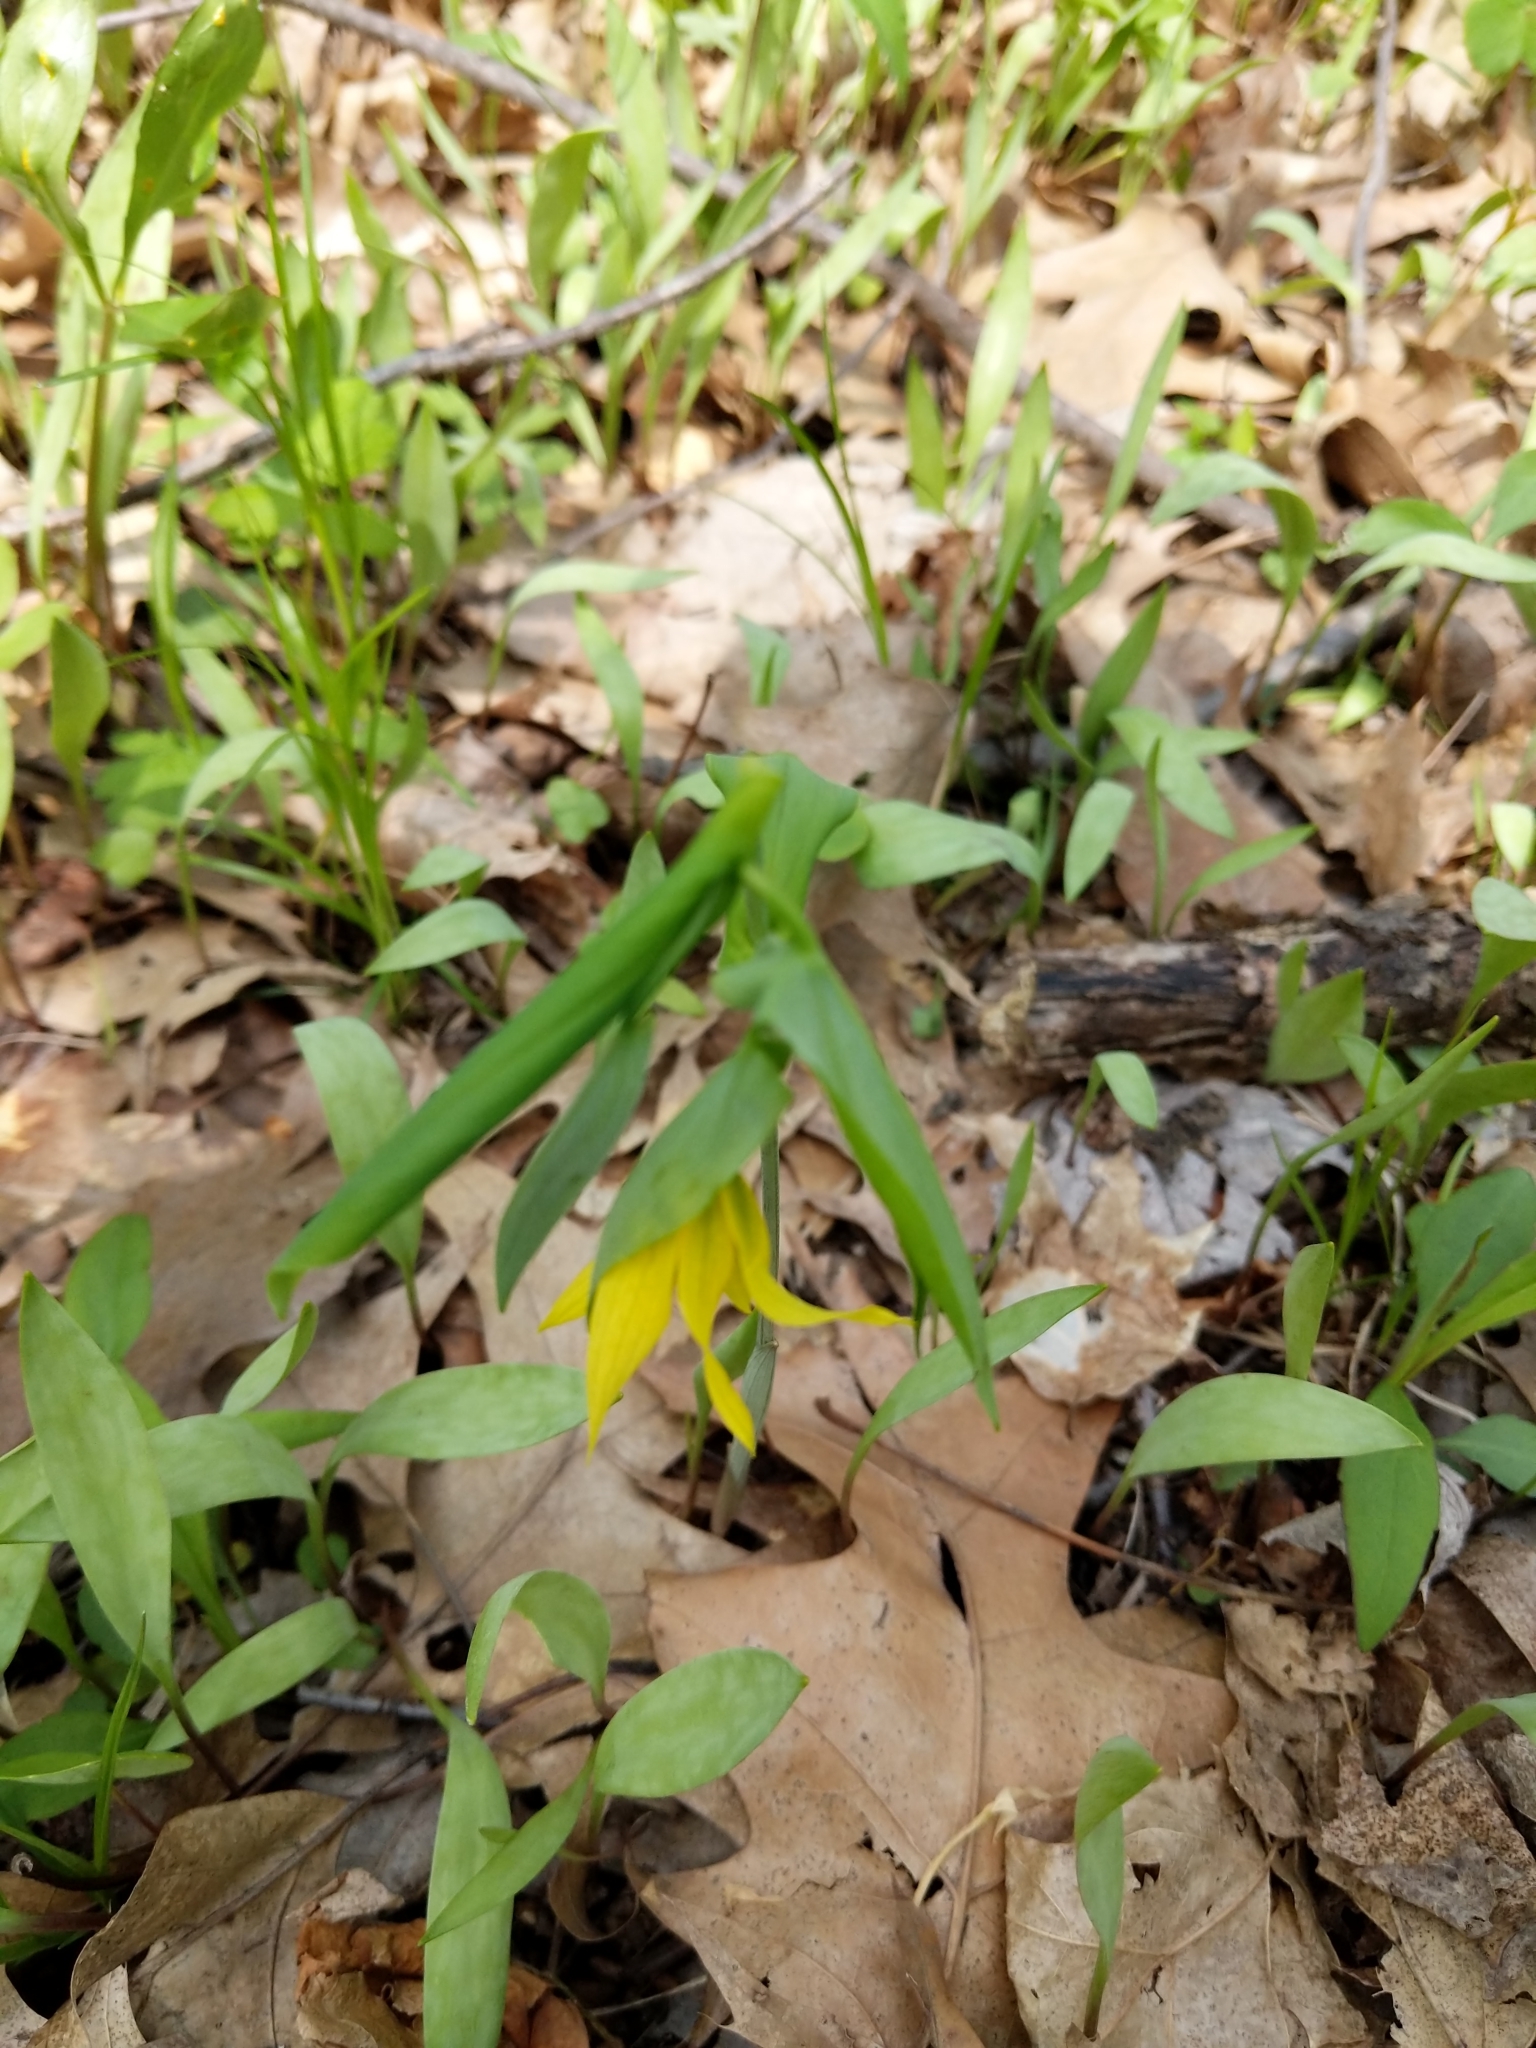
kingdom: Plantae
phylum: Tracheophyta
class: Liliopsida
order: Liliales
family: Colchicaceae
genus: Uvularia
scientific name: Uvularia grandiflora
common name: Bellwort
